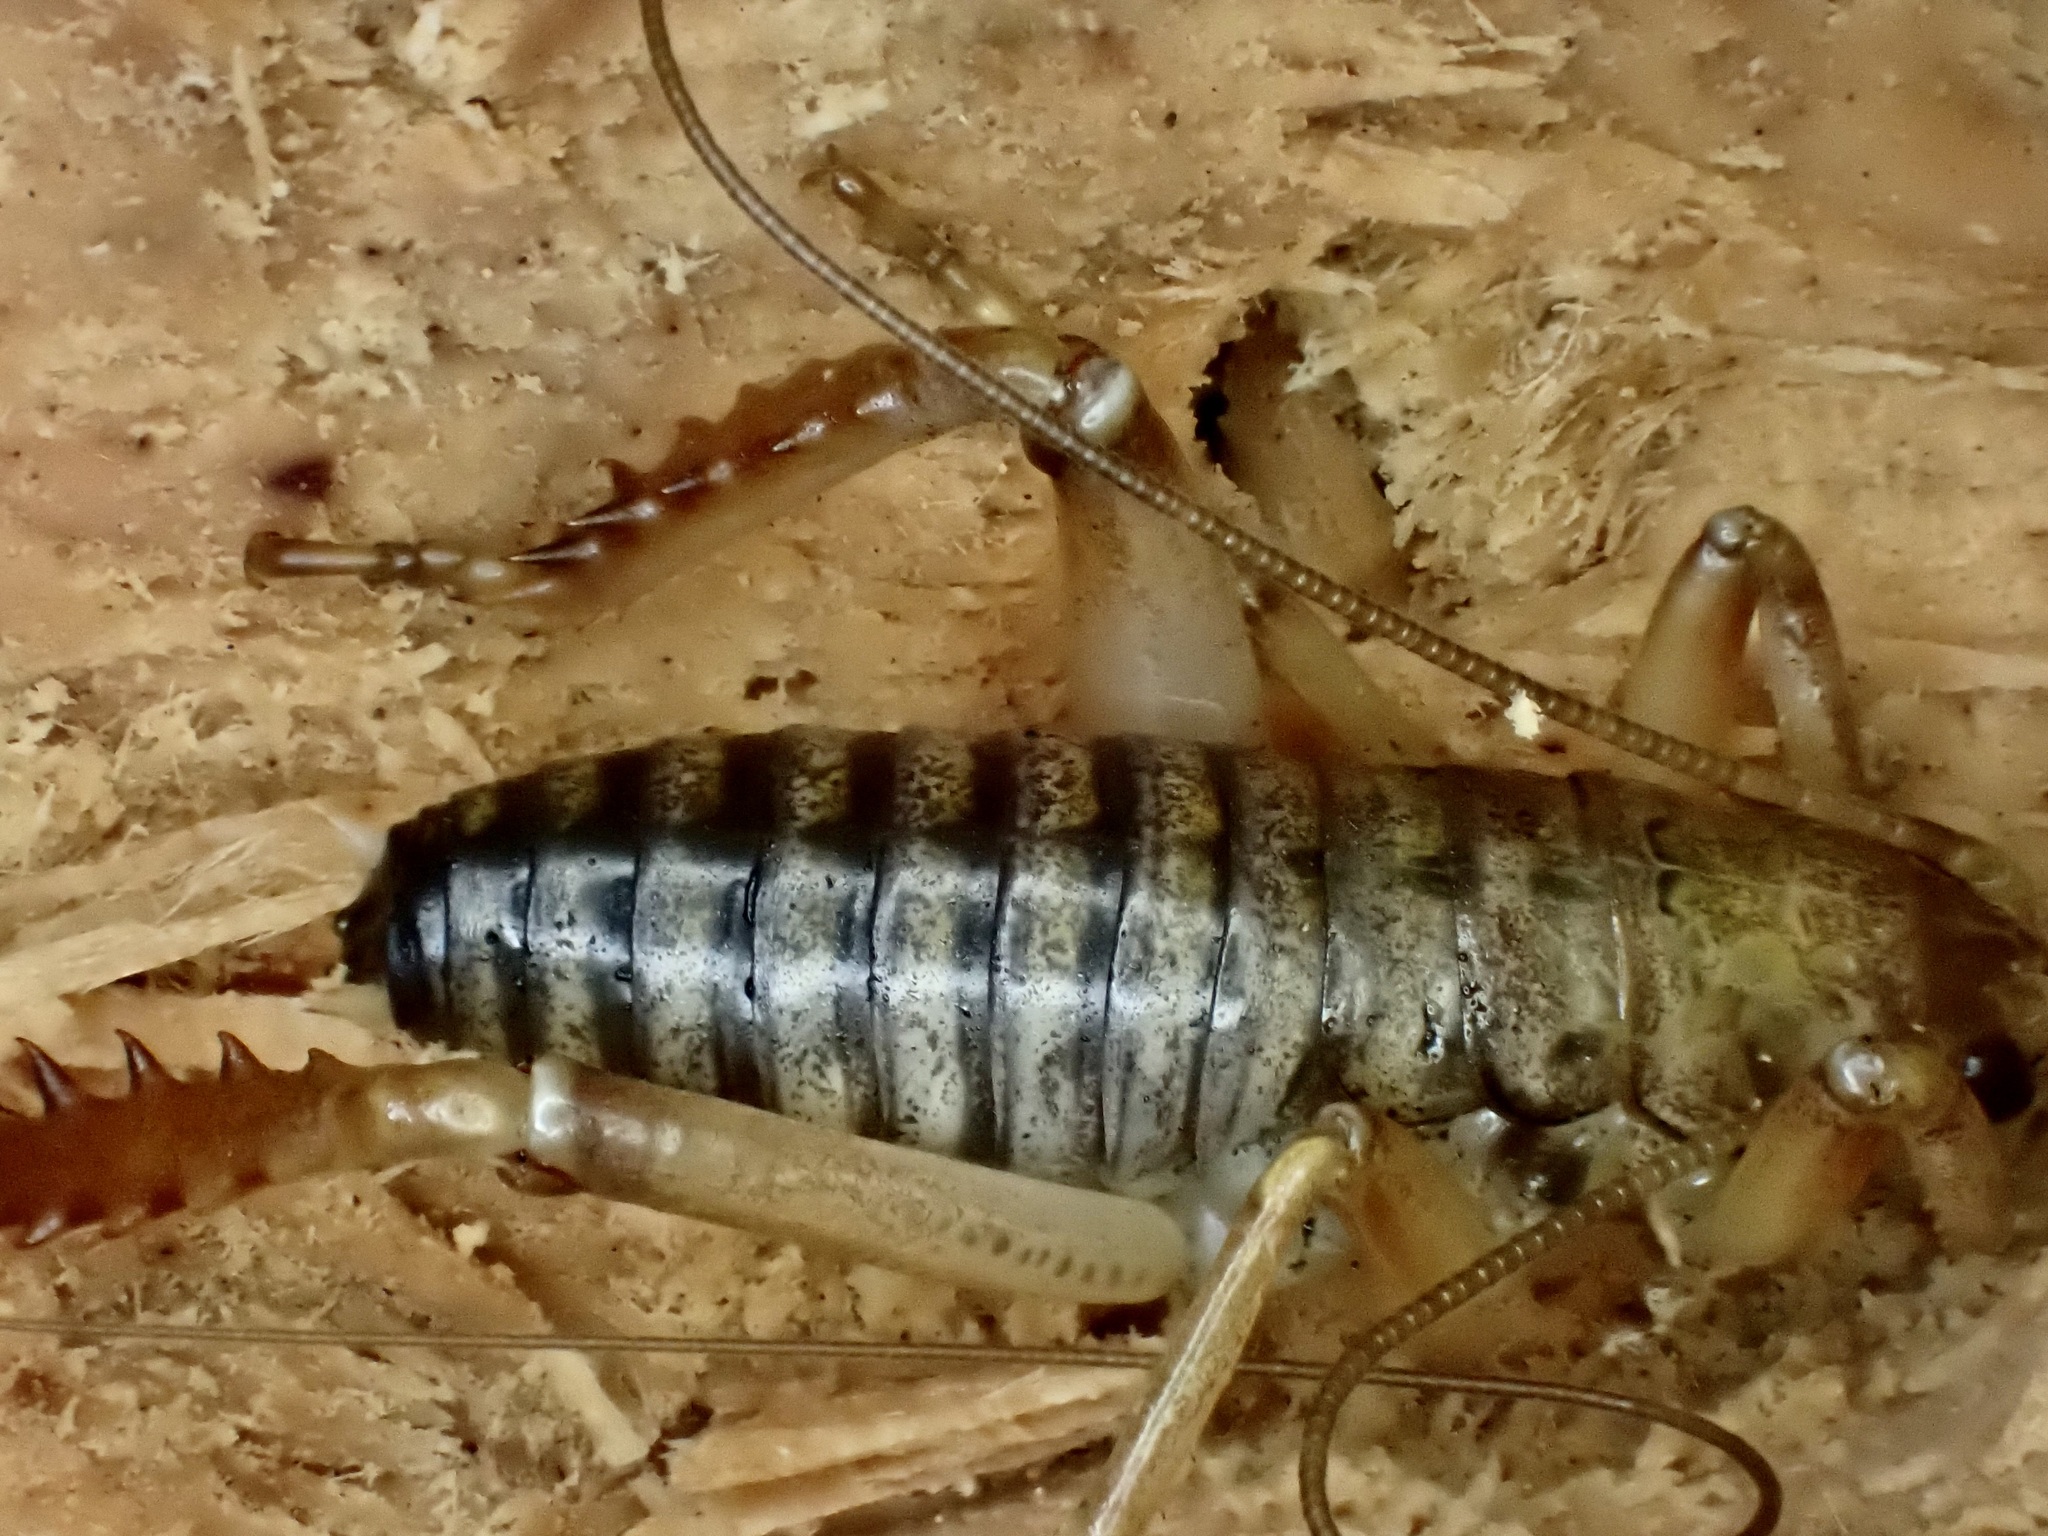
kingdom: Animalia
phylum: Arthropoda
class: Insecta
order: Orthoptera
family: Anostostomatidae
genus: Hemideina
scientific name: Hemideina ricta
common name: Banks peninsula tree weta
